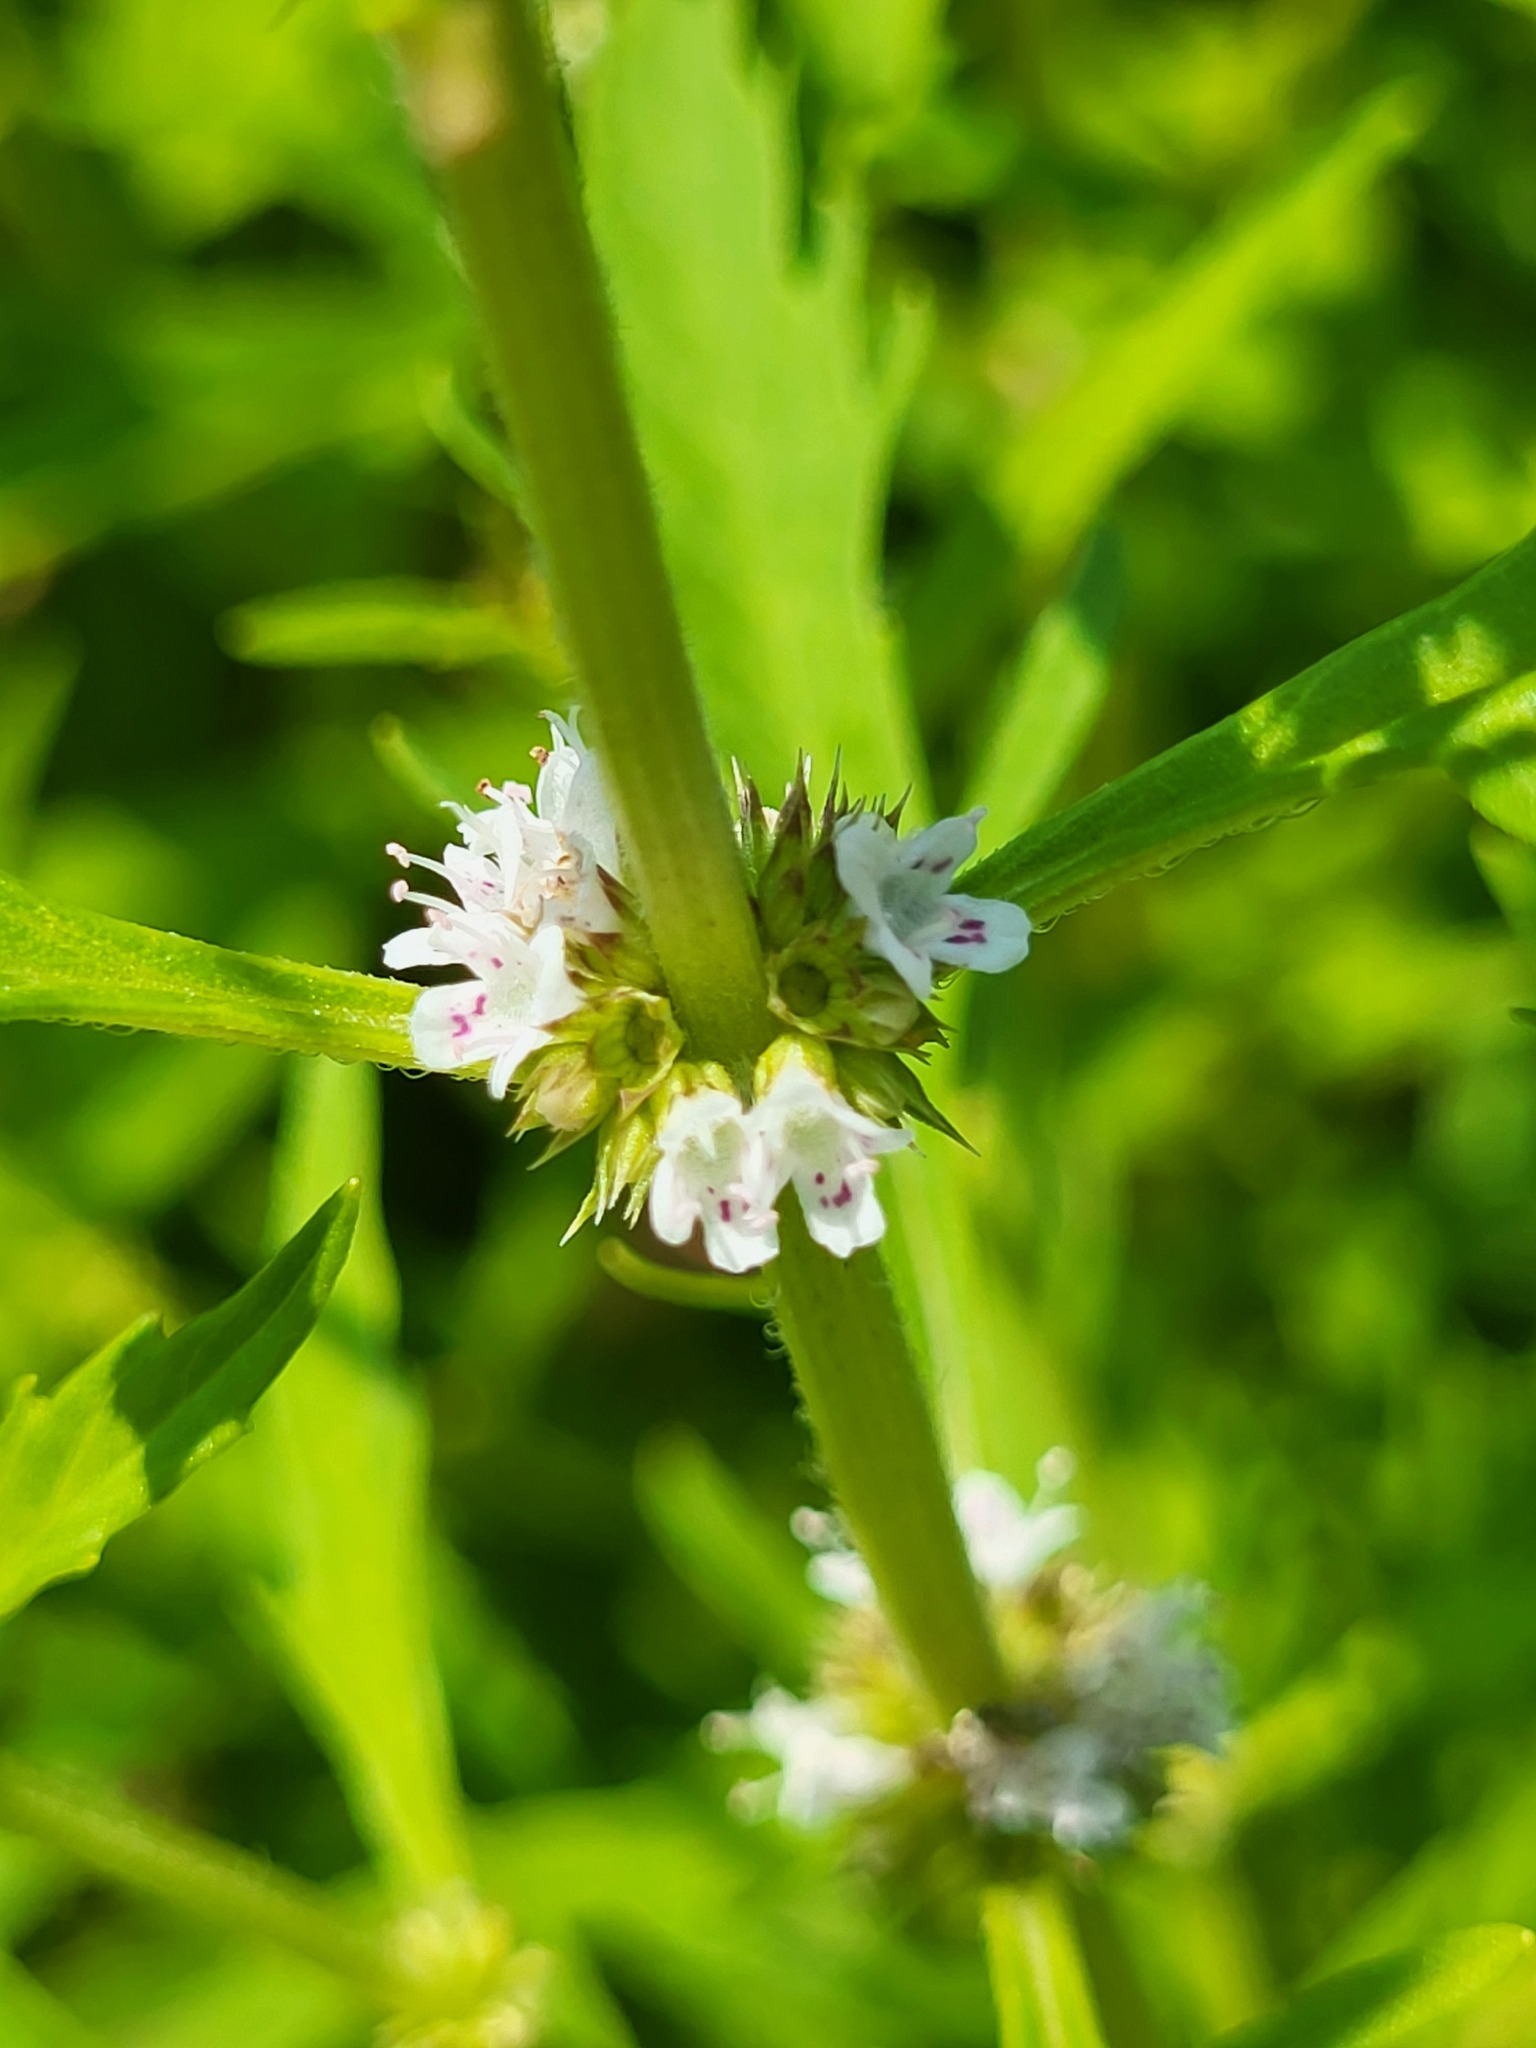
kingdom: Plantae
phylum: Tracheophyta
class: Magnoliopsida
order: Lamiales
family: Lamiaceae
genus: Lycopus
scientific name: Lycopus americanus
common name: American bugleweed
